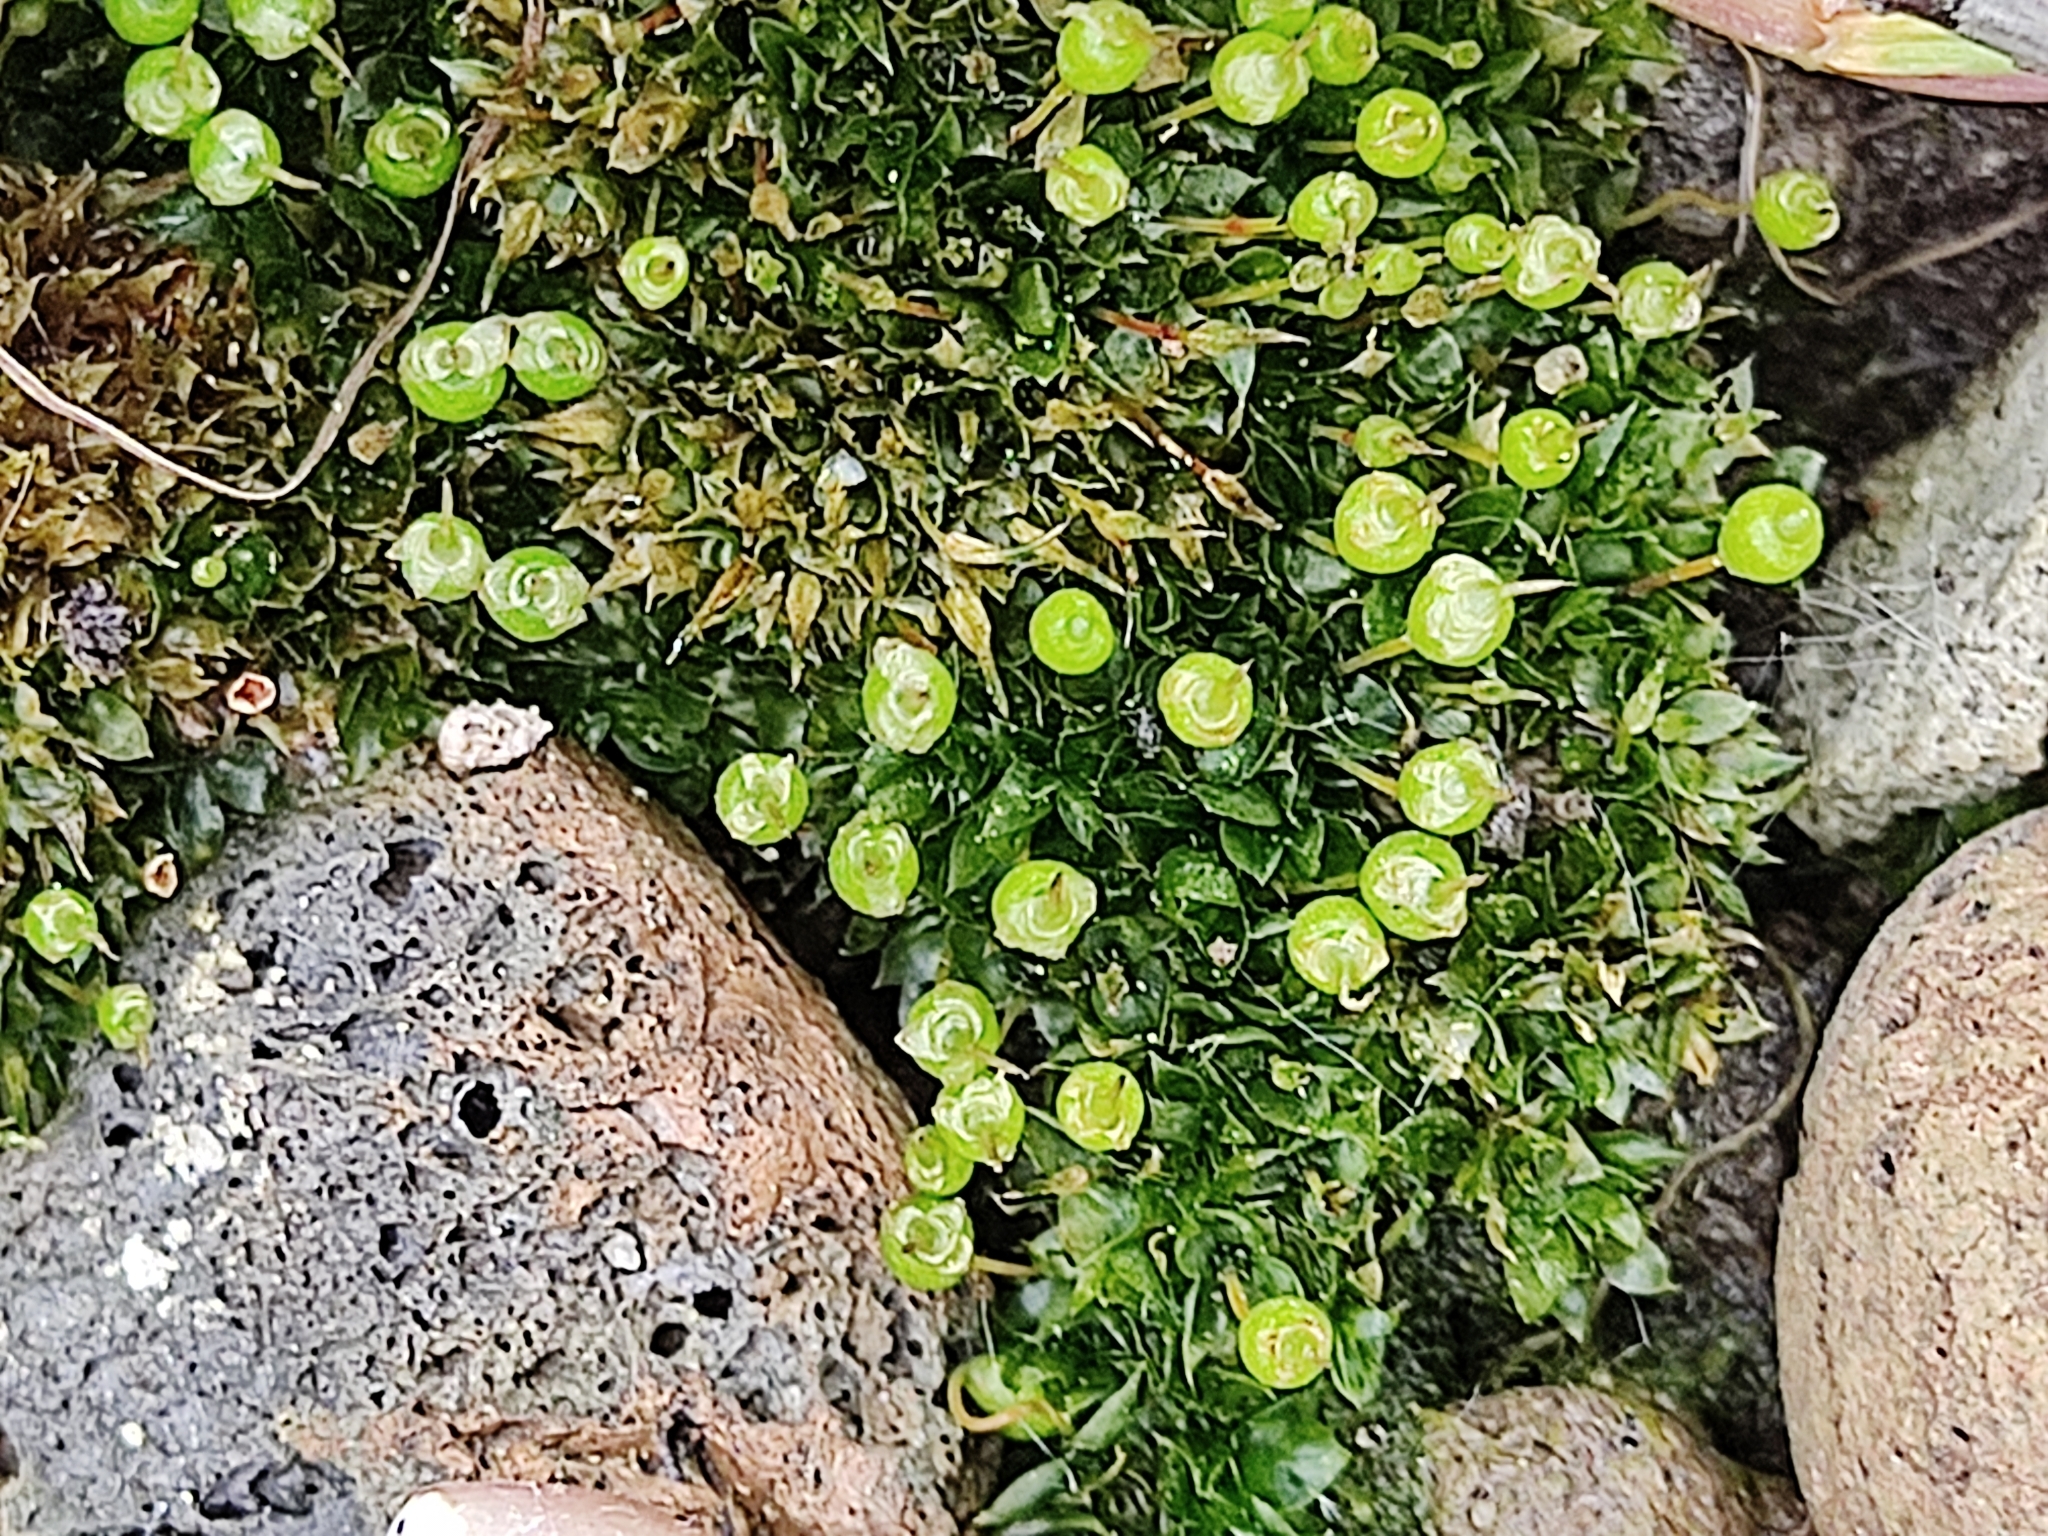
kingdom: Plantae
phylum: Bryophyta
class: Bryopsida
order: Funariales
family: Funariaceae
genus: Physcomitrium
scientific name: Physcomitrium pyriforme
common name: Common bladder-moss
